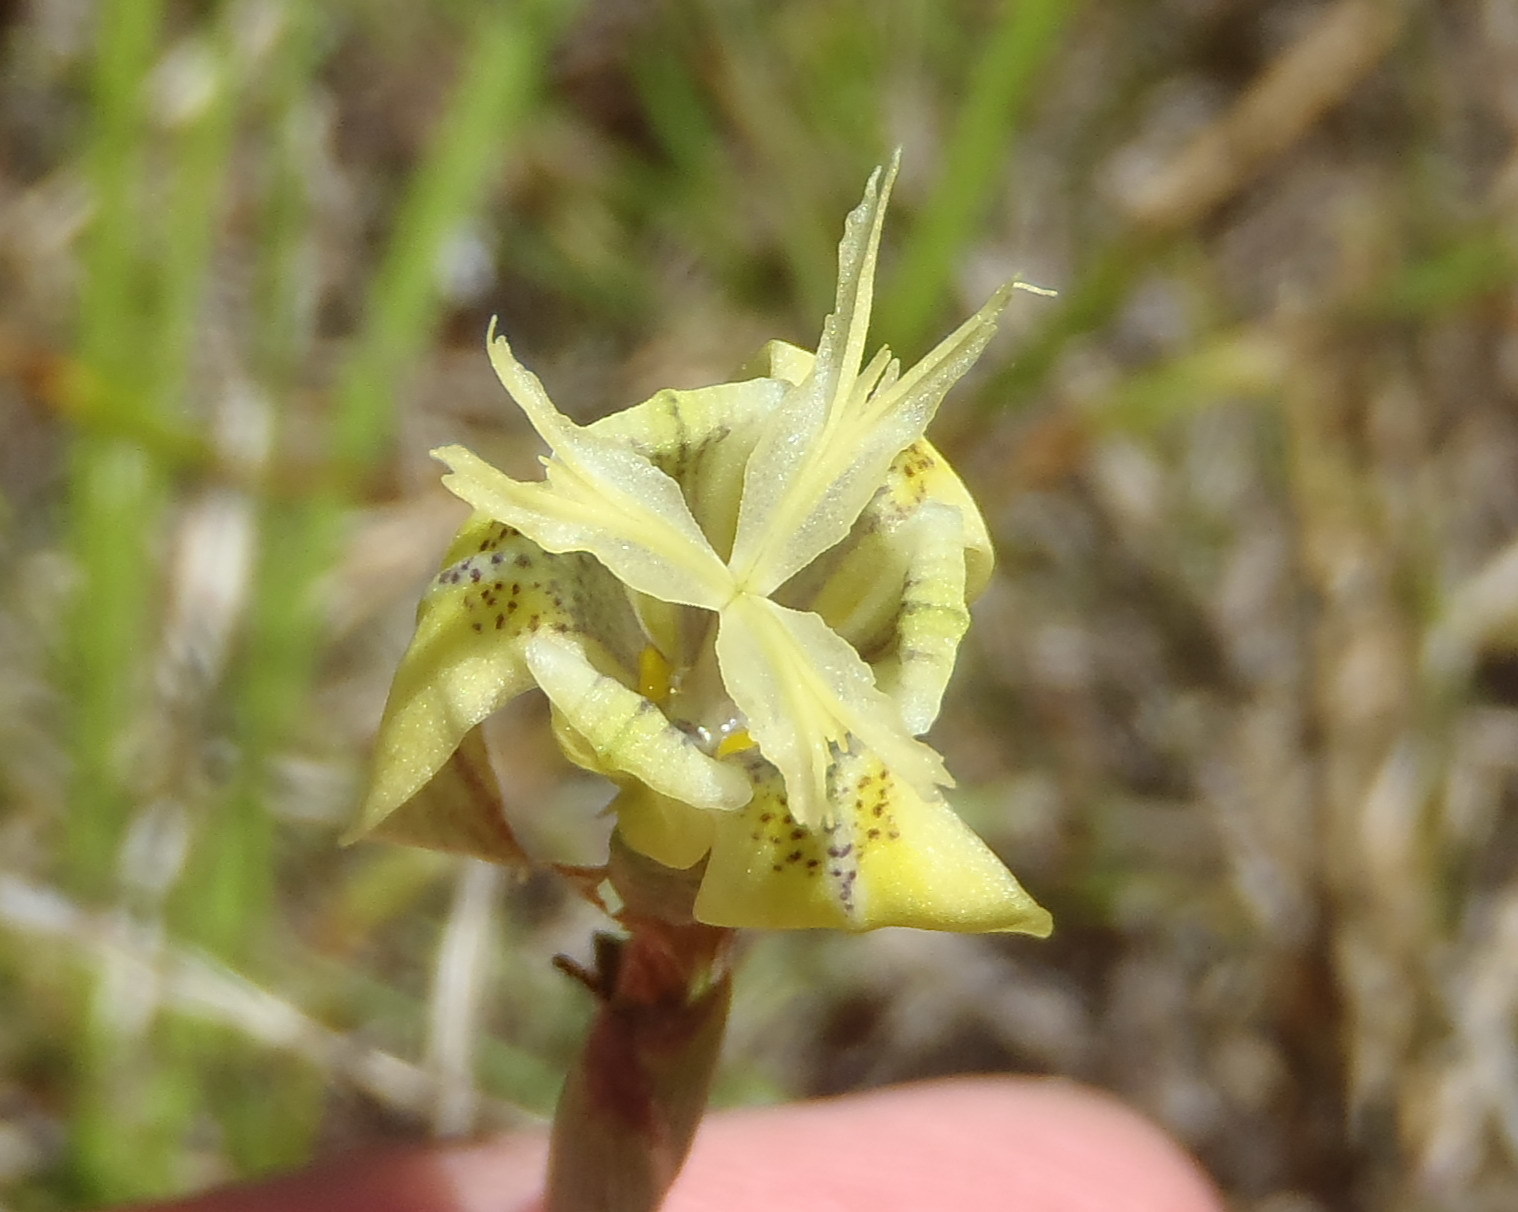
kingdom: Plantae
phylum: Tracheophyta
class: Liliopsida
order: Asparagales
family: Iridaceae
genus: Moraea
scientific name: Moraea inconspicua
